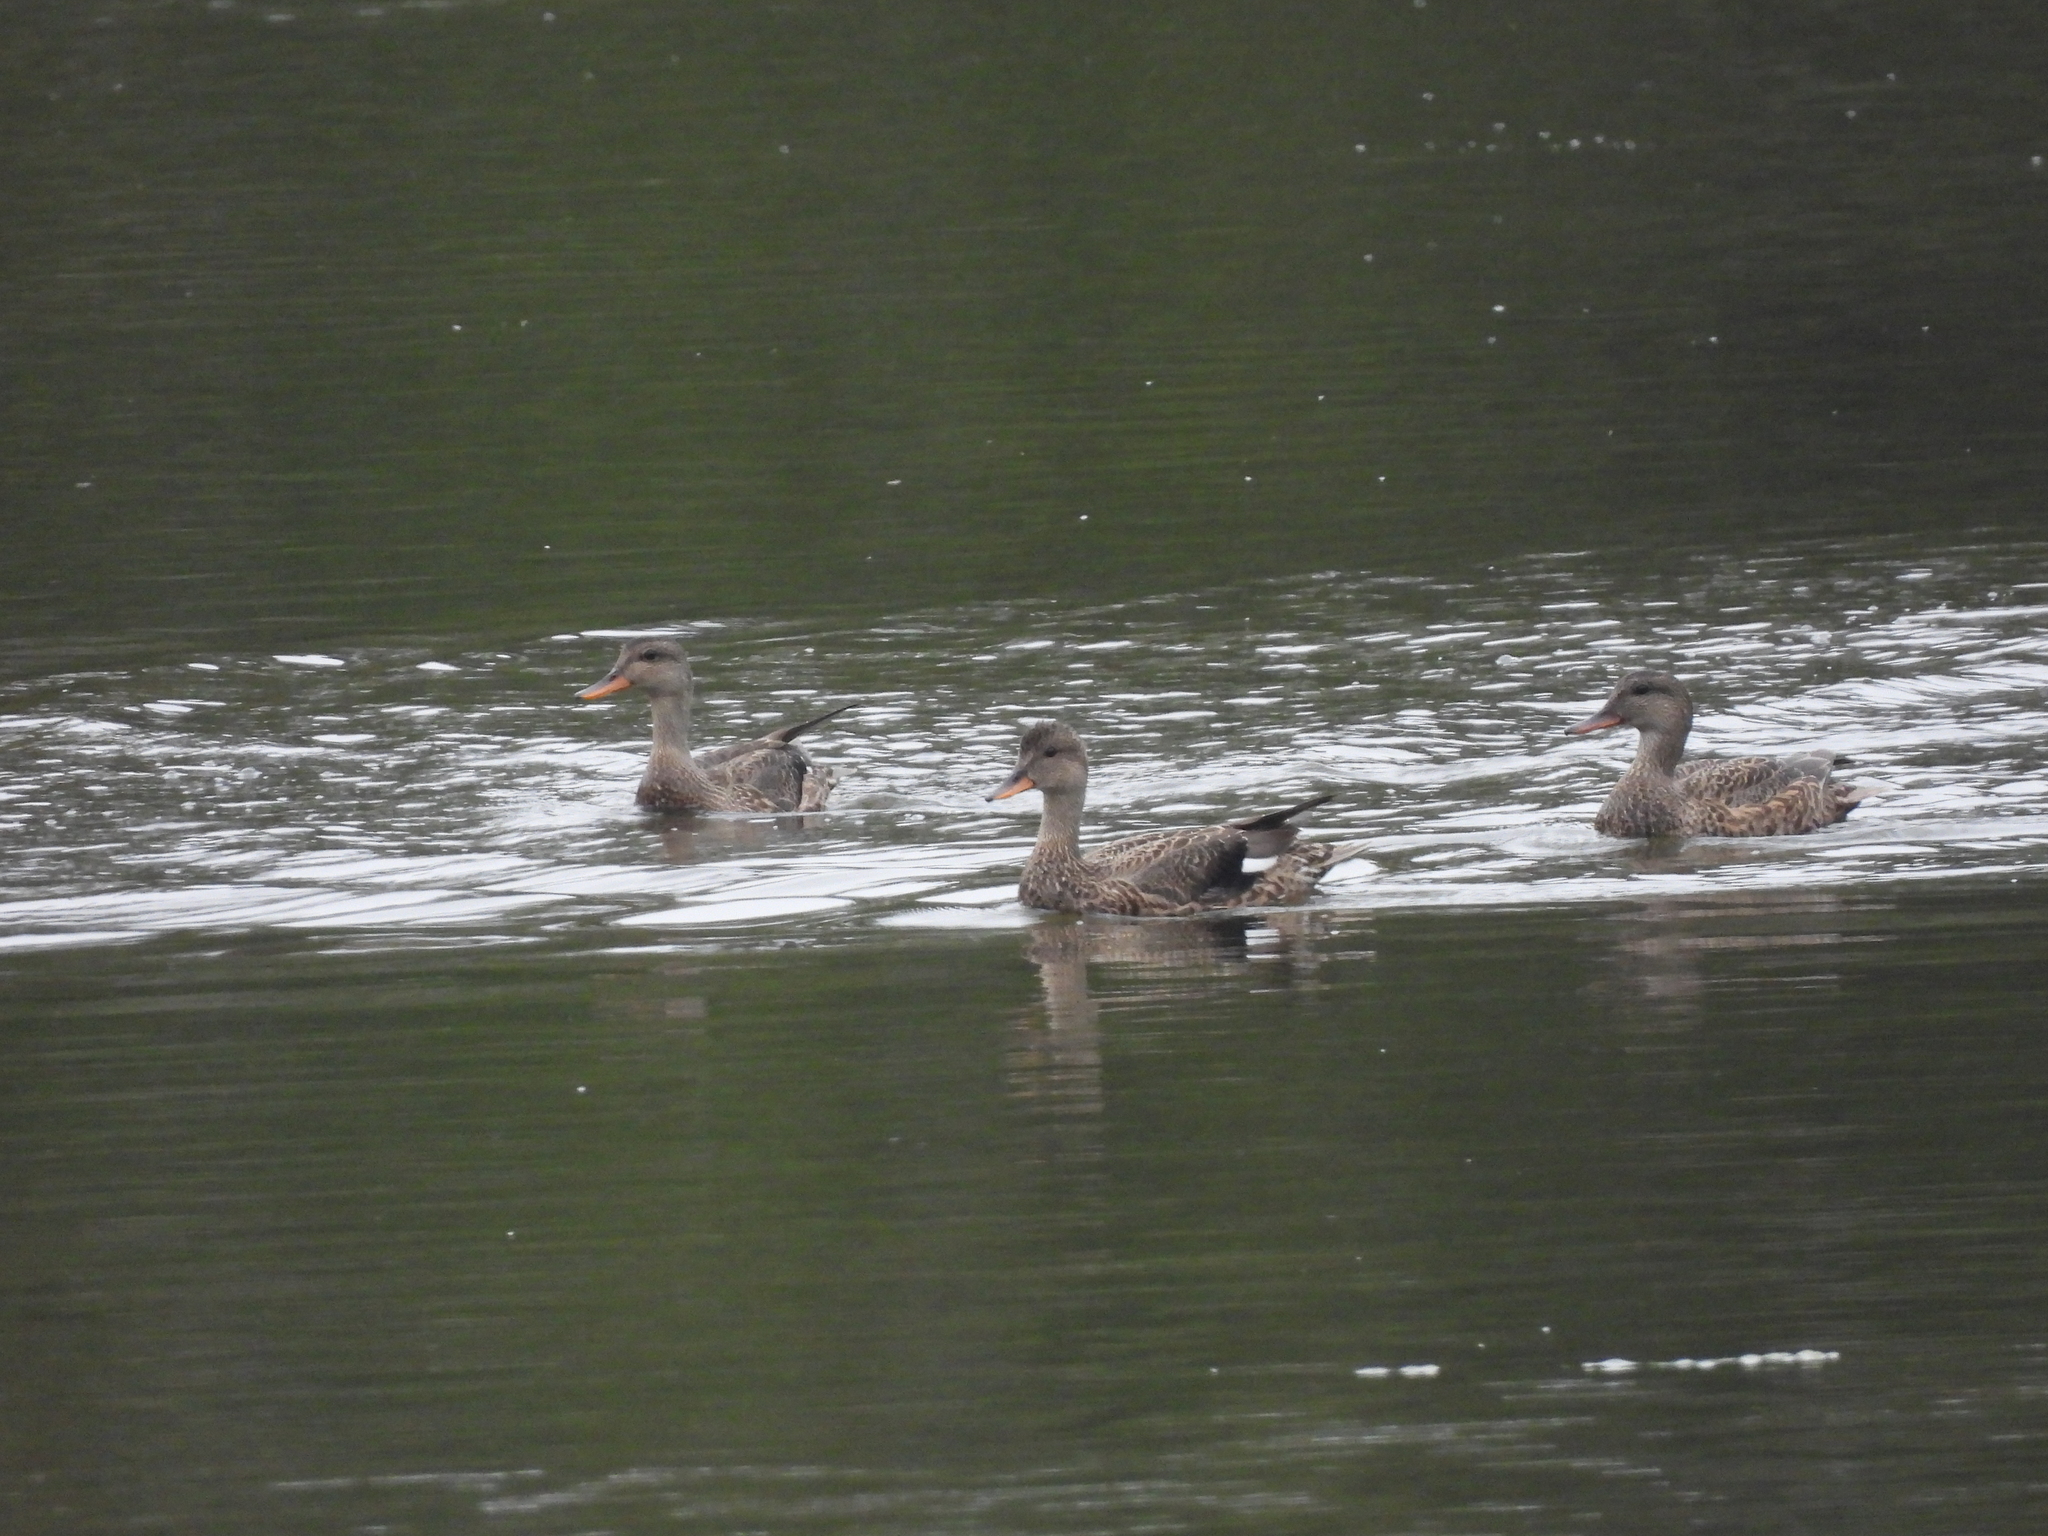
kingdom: Animalia
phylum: Chordata
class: Aves
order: Anseriformes
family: Anatidae
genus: Mareca
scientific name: Mareca strepera
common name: Gadwall
